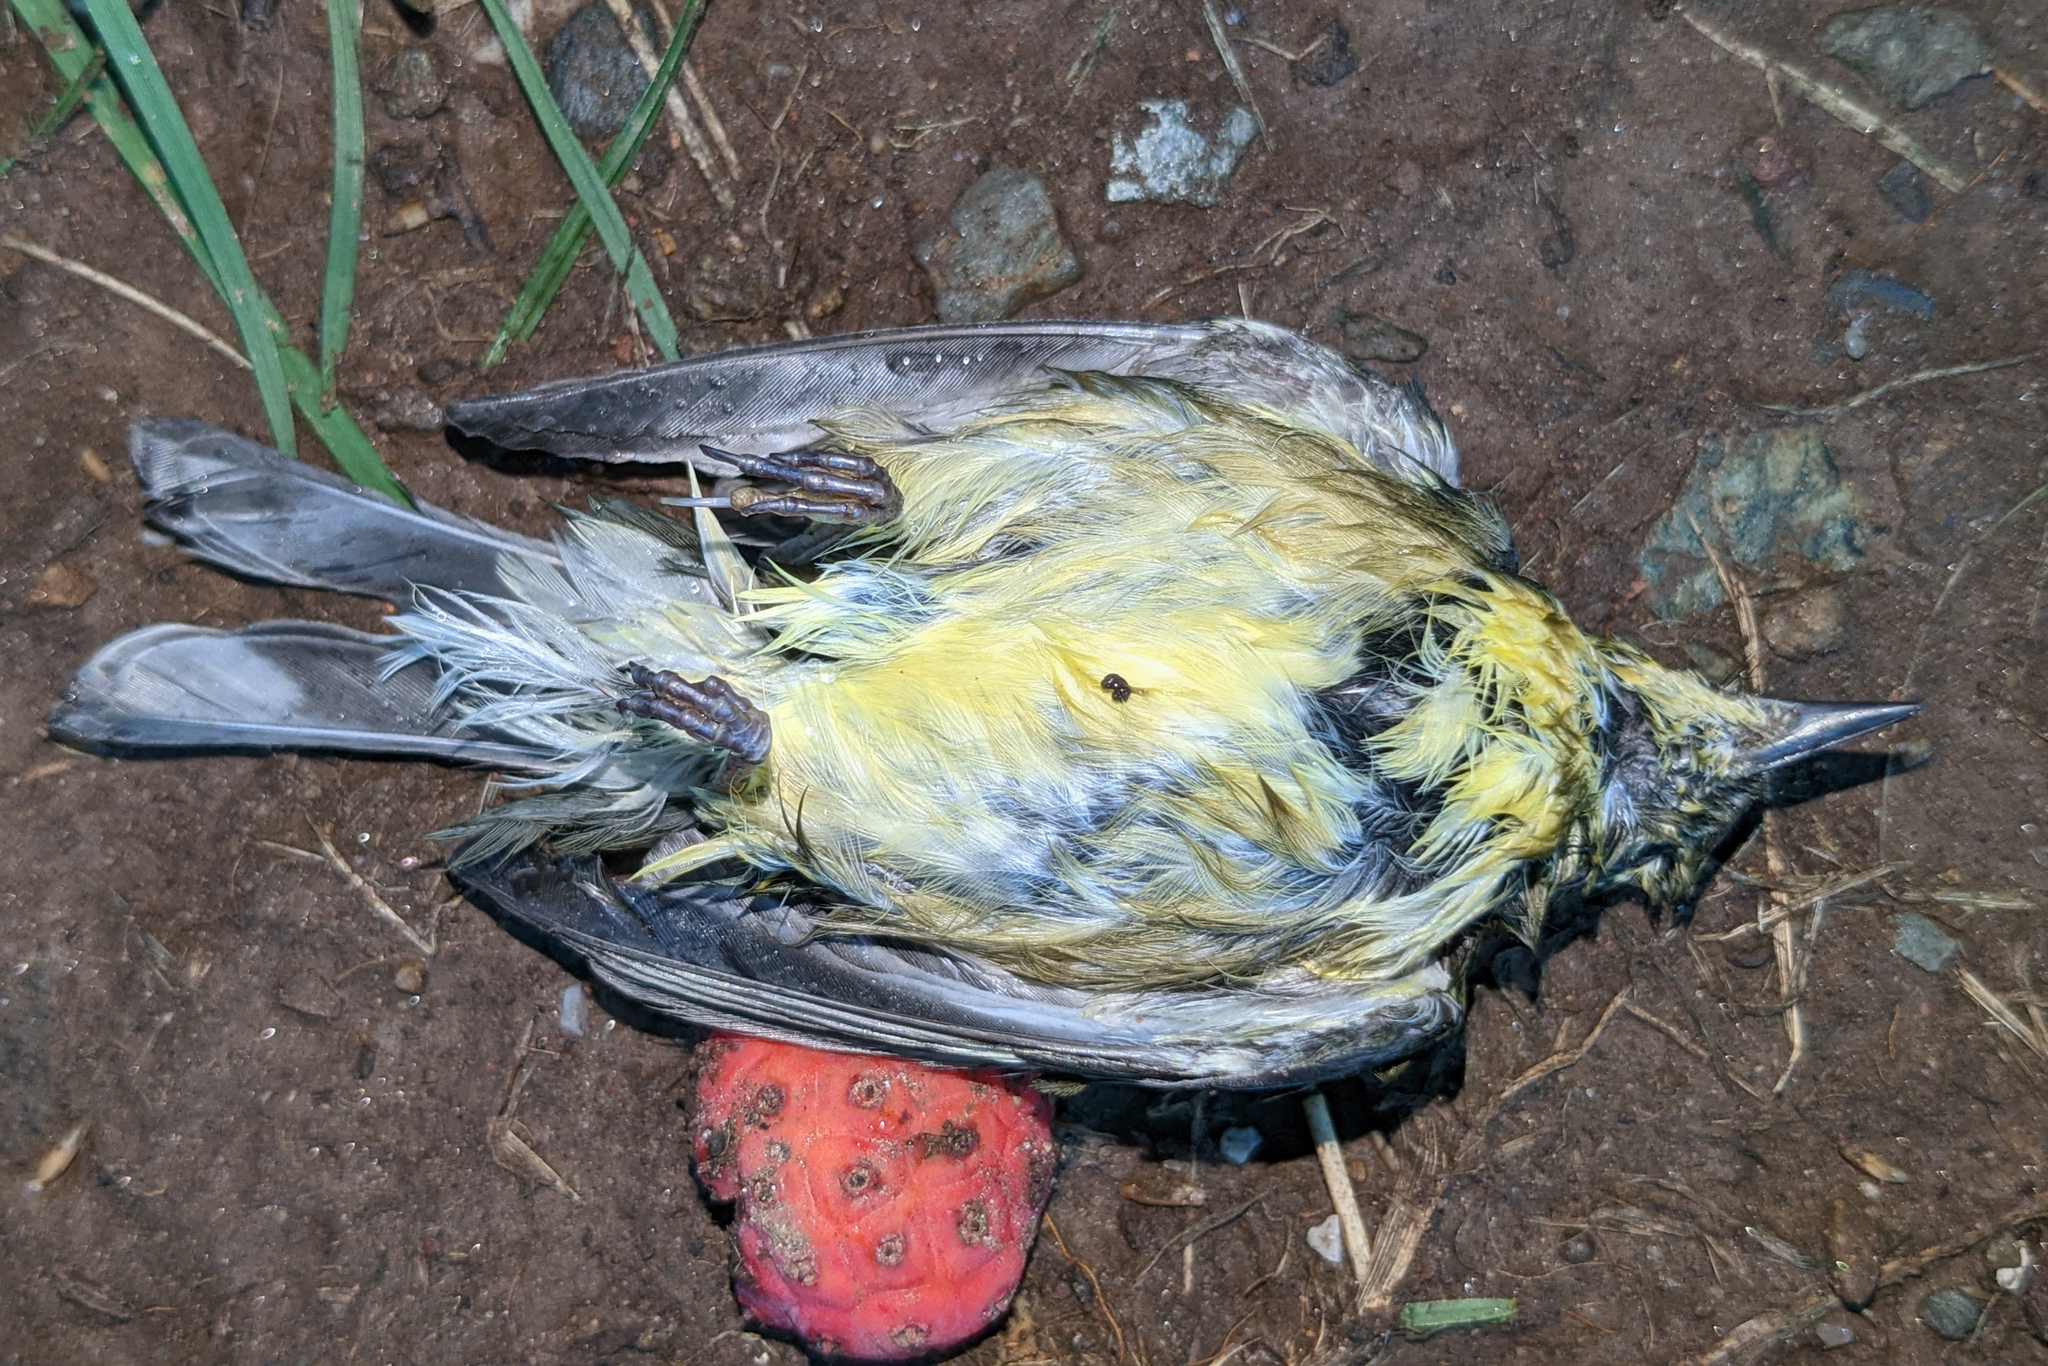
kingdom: Animalia
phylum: Chordata
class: Aves
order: Passeriformes
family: Parulidae
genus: Setophaga
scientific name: Setophaga caerulescens
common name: Black-throated blue warbler
